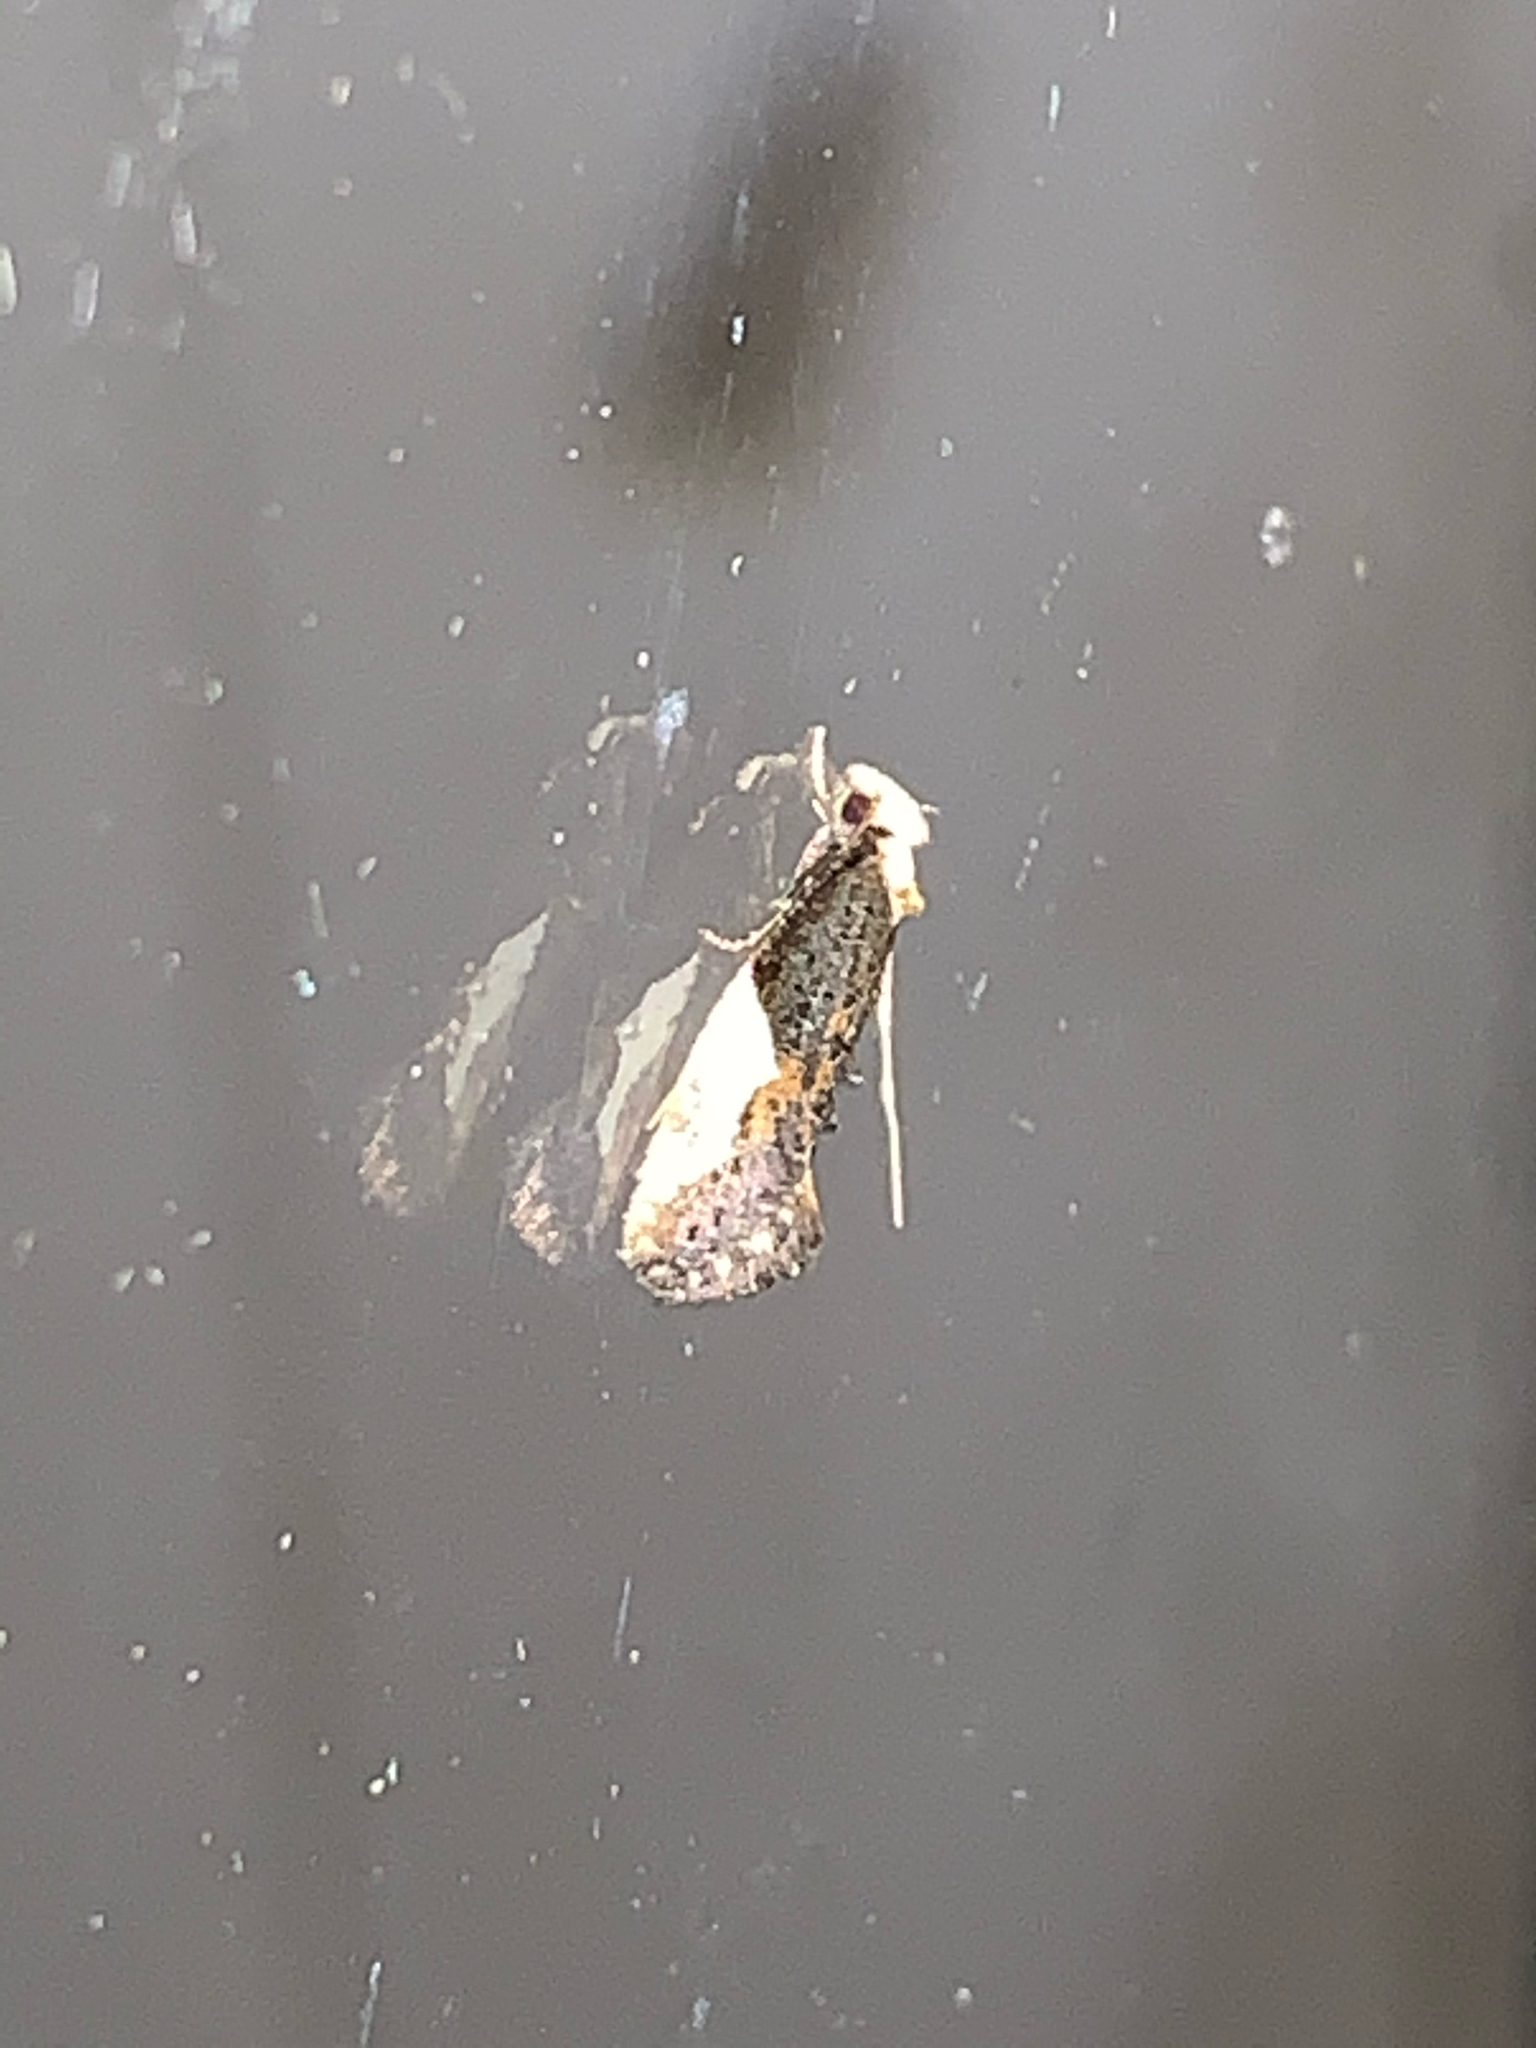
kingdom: Animalia
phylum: Arthropoda
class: Insecta
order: Lepidoptera
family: Tineidae
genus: Monopis
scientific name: Monopis longella
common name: Pavlovski's monopis moth
